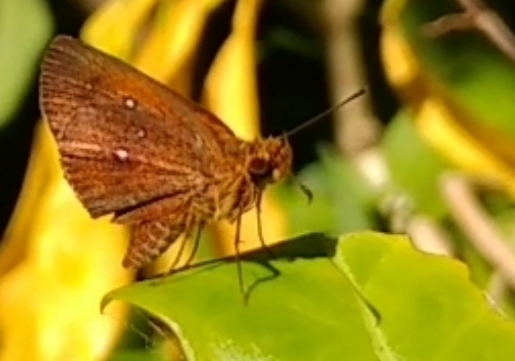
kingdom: Animalia
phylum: Arthropoda
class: Insecta
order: Lepidoptera
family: Hesperiidae
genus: Iambrix
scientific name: Iambrix salsala
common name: Chestnut bob
